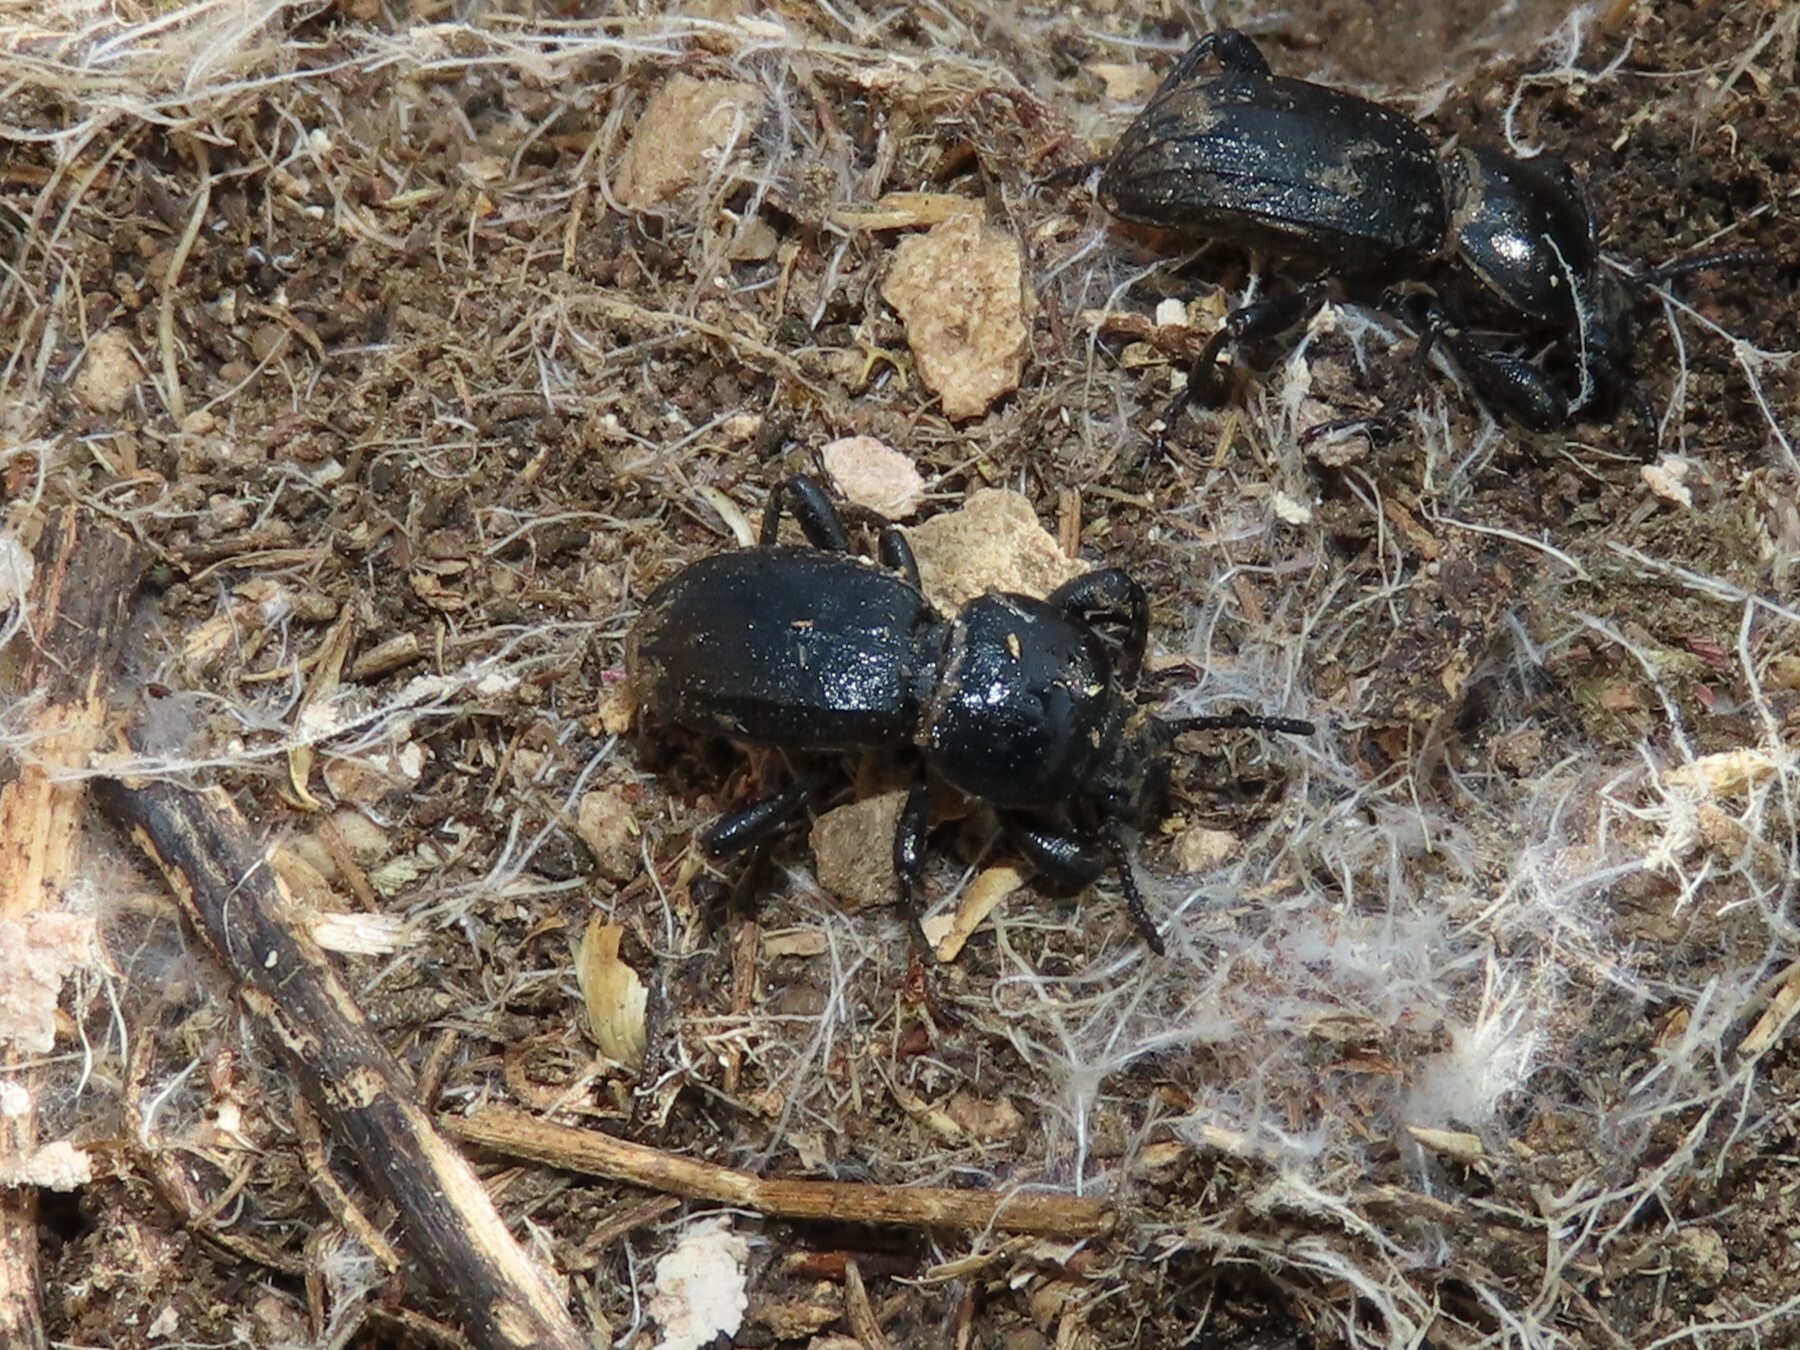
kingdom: Animalia
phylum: Arthropoda
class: Insecta
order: Coleoptera
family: Tenebrionidae
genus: Scaurus
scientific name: Scaurus uncinus
